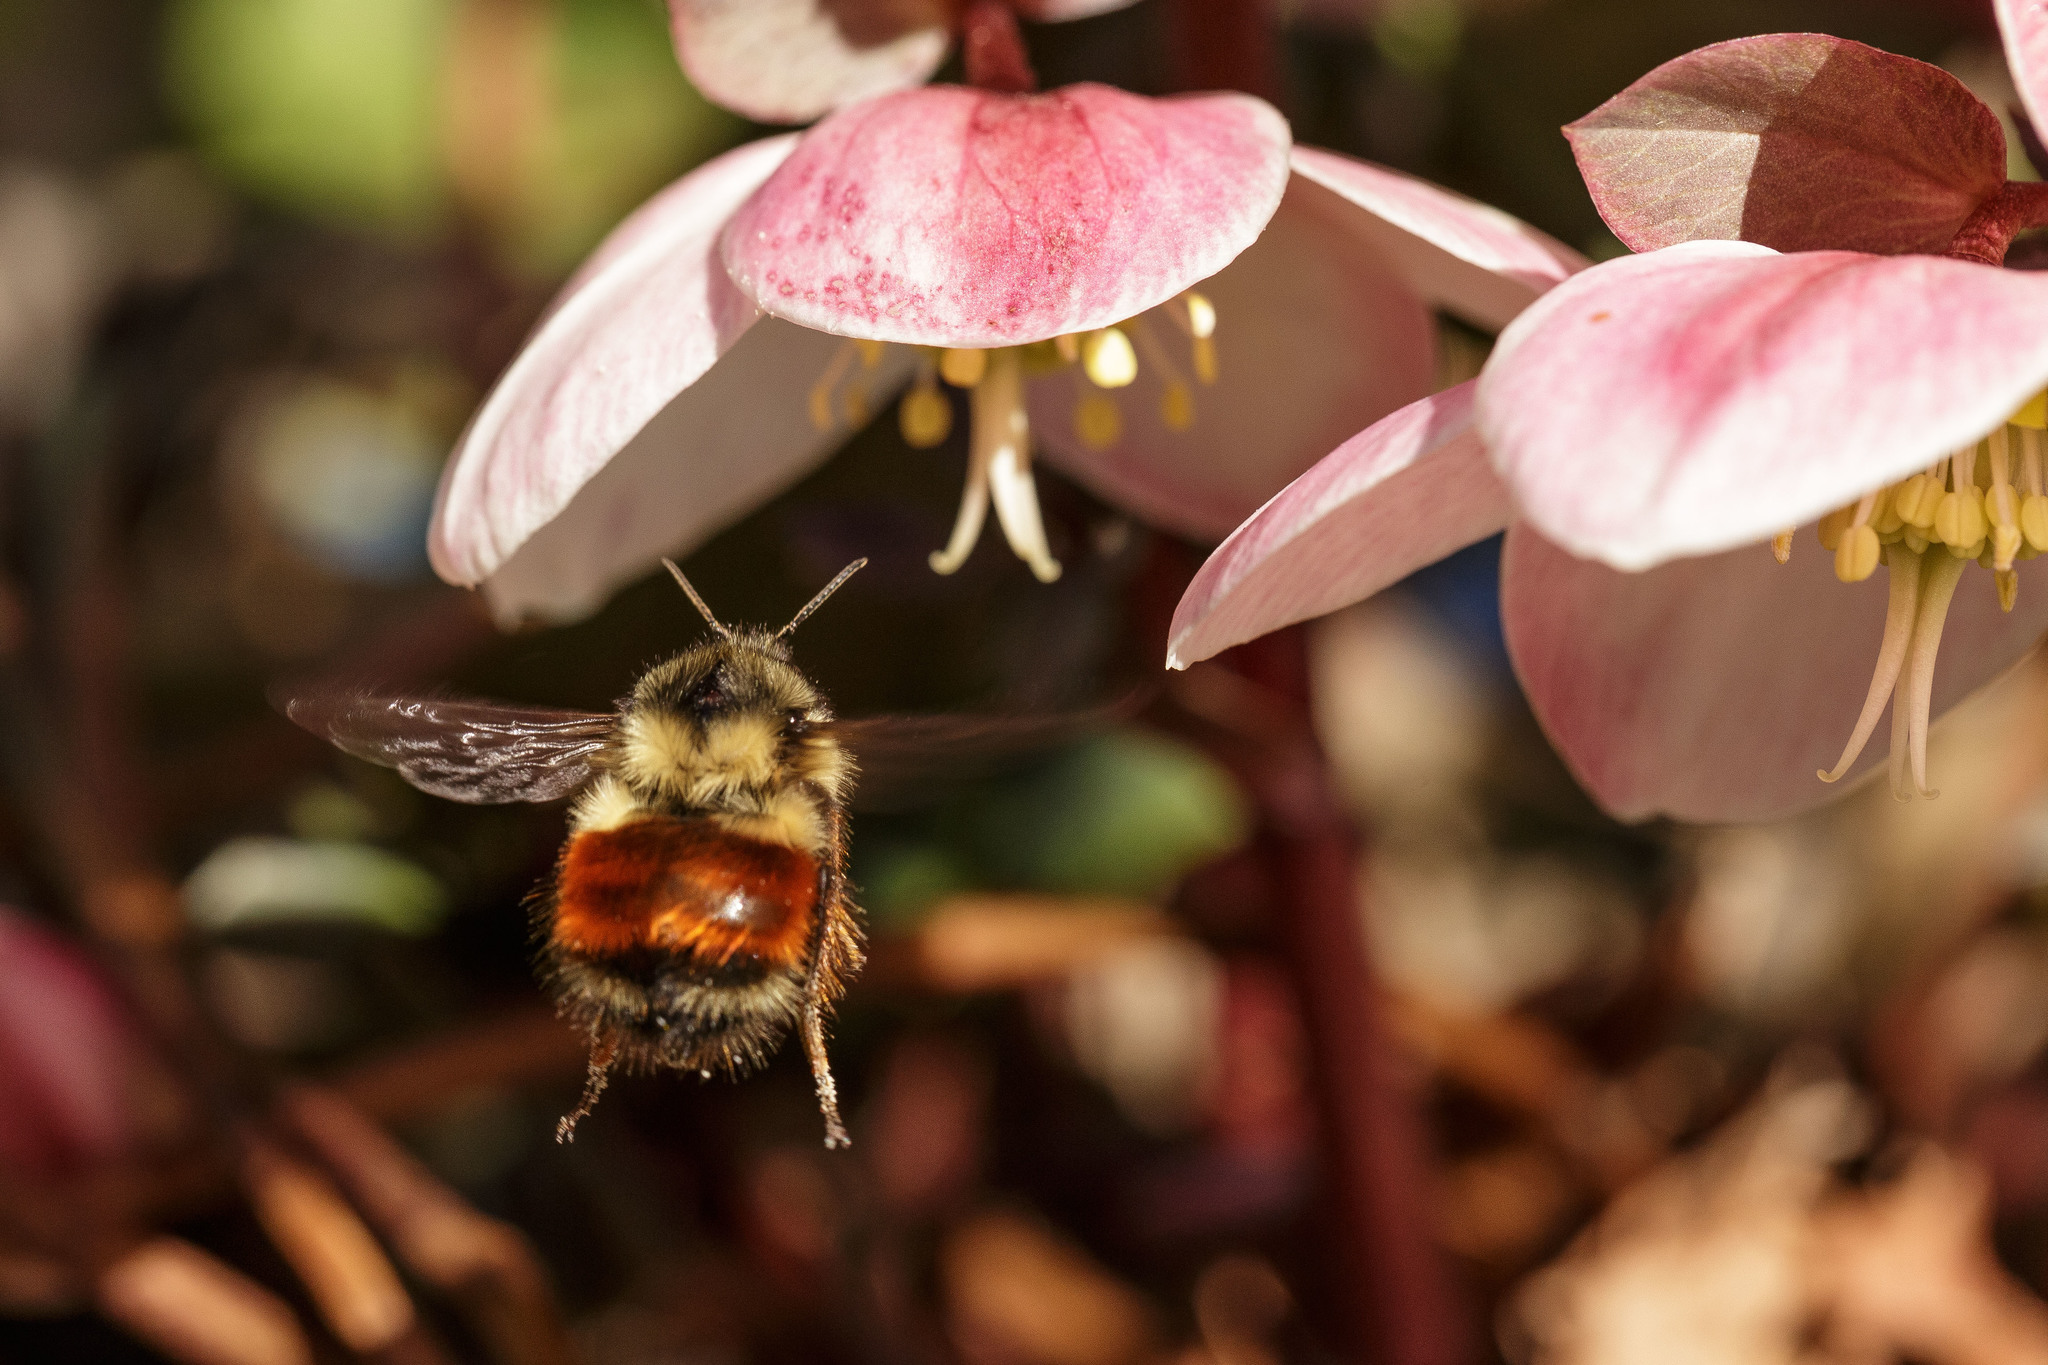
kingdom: Animalia
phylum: Arthropoda
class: Insecta
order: Hymenoptera
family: Apidae
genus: Bombus
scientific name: Bombus melanopygus
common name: Black tail bumble bee
